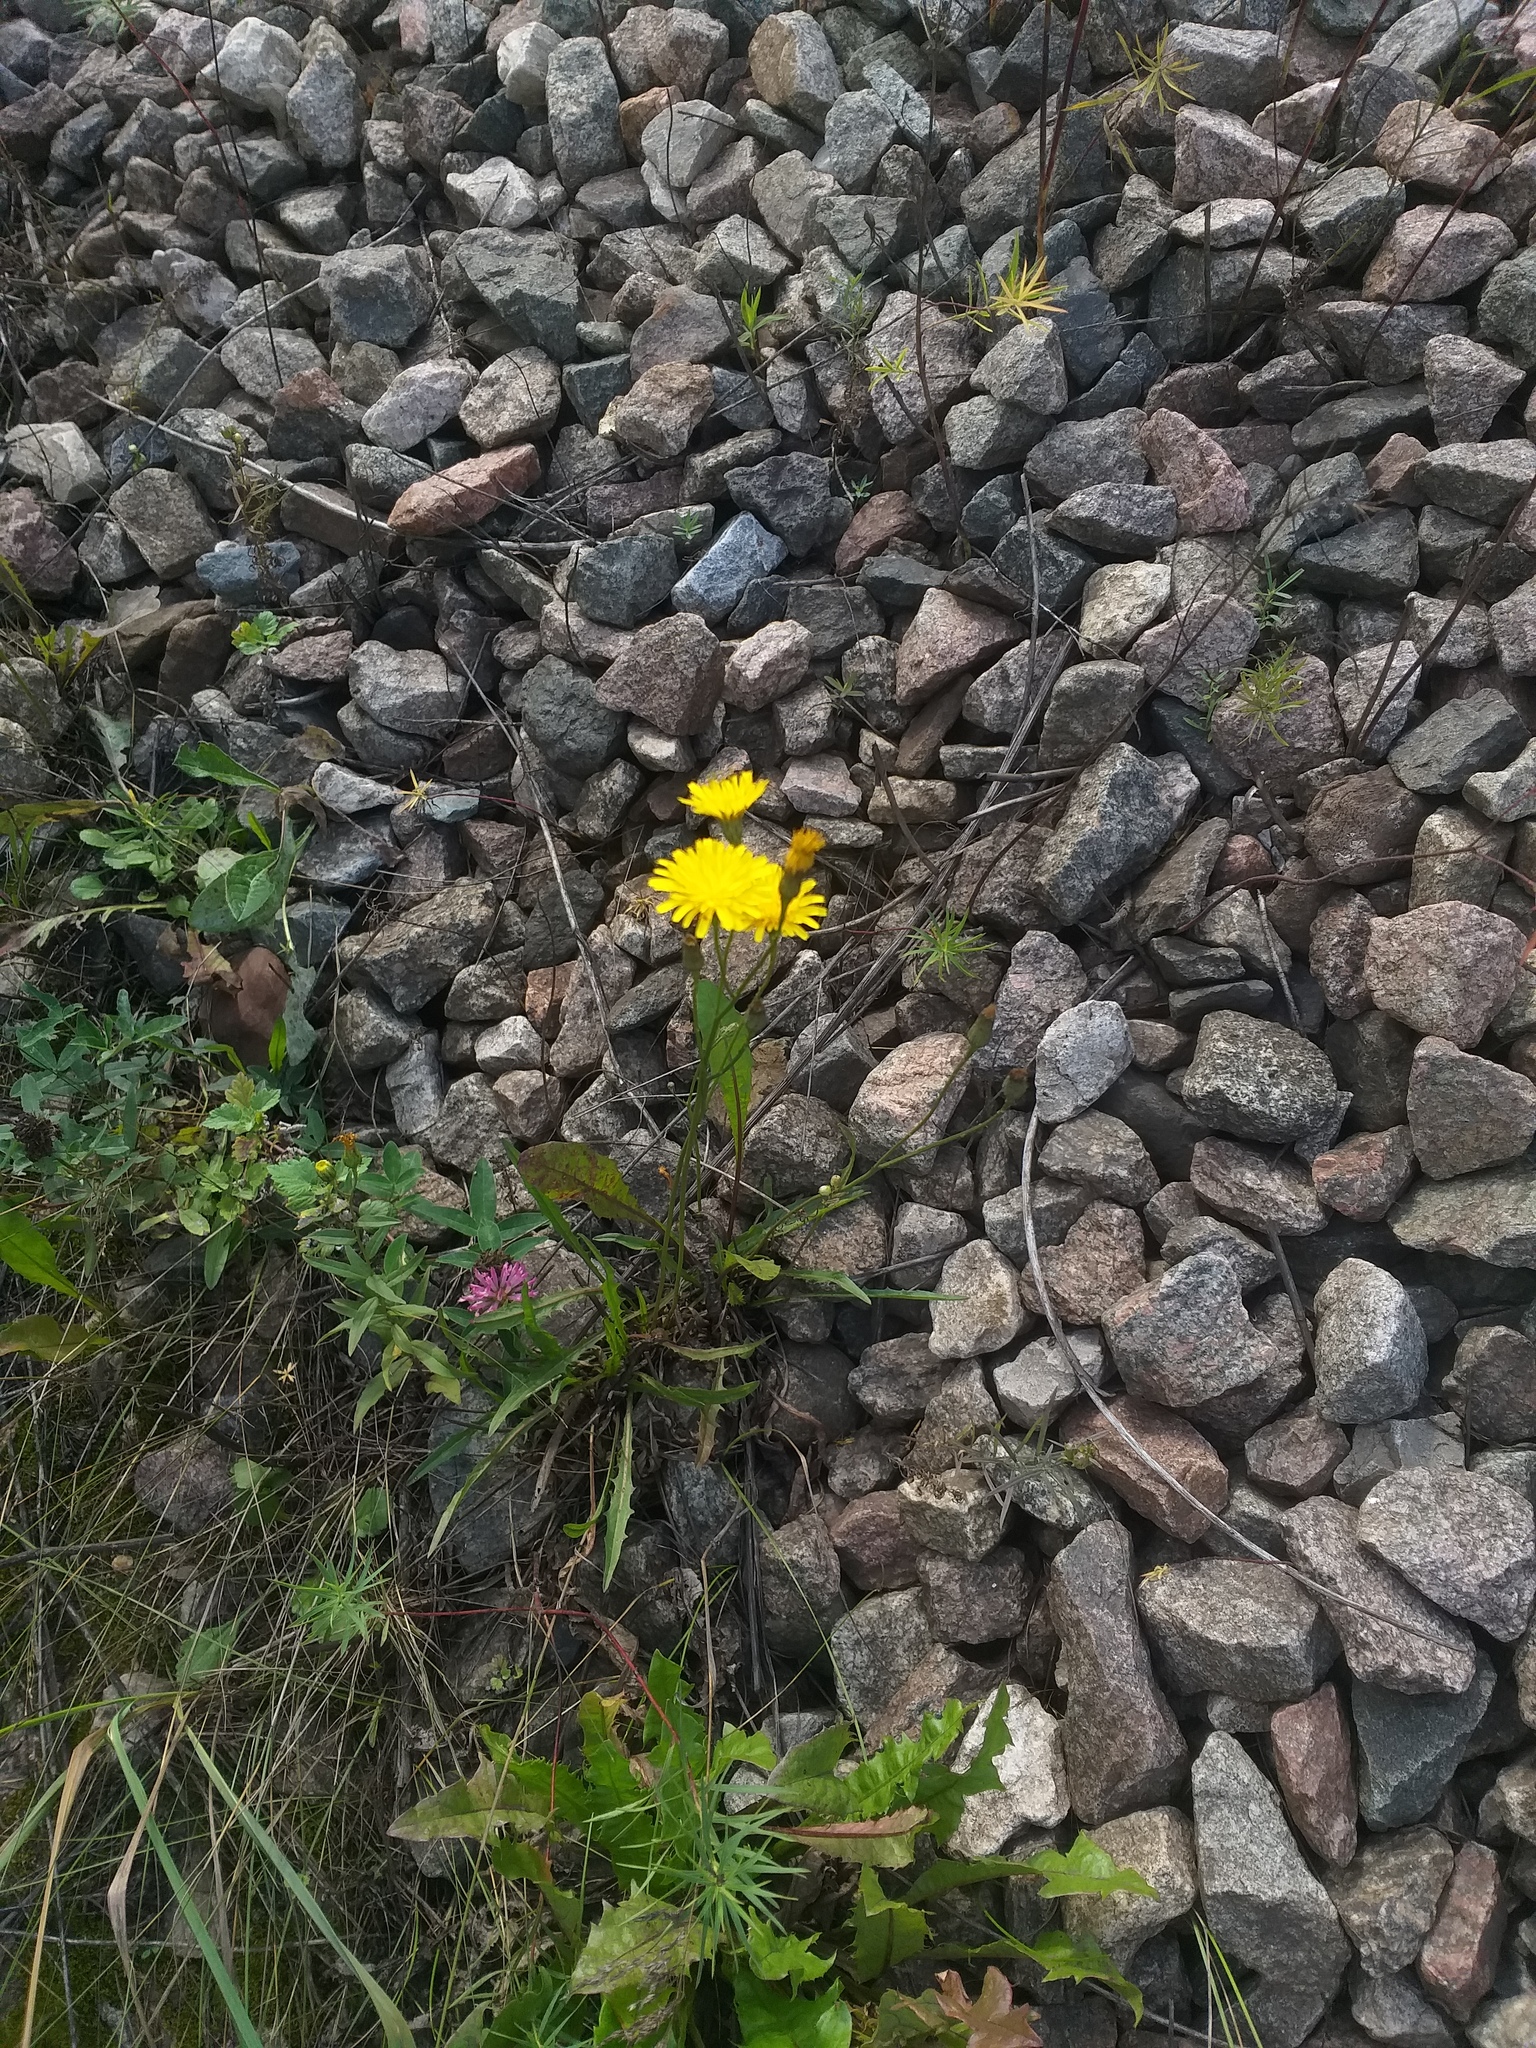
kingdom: Plantae
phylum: Tracheophyta
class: Magnoliopsida
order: Asterales
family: Asteraceae
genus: Scorzoneroides
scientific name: Scorzoneroides autumnalis
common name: Autumn hawkbit
